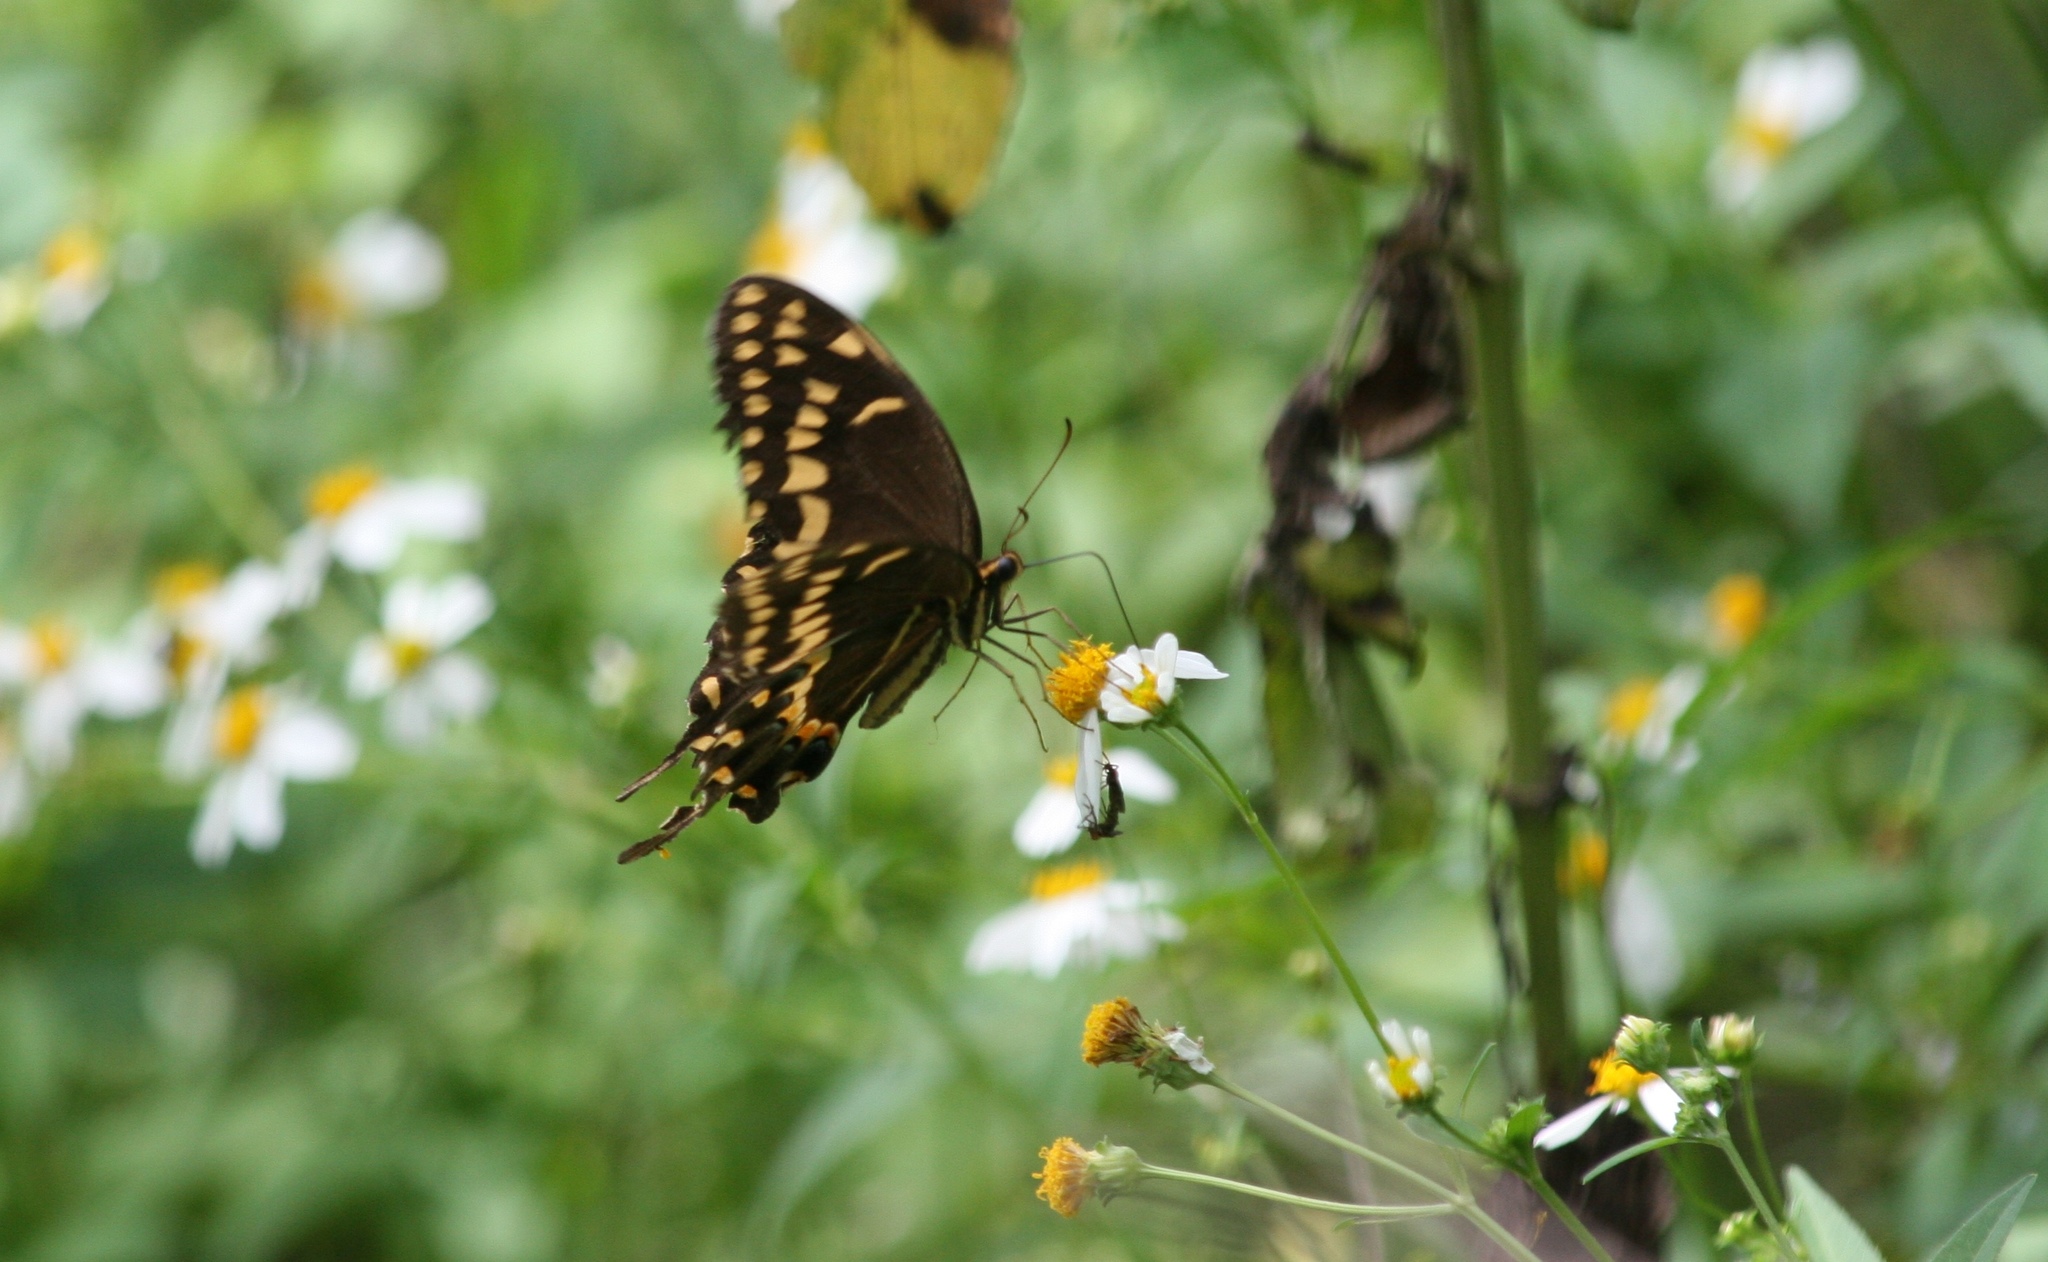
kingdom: Animalia
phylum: Arthropoda
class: Insecta
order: Lepidoptera
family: Papilionidae
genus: Papilio
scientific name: Papilio palamedes
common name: Palamedes swallowtail
